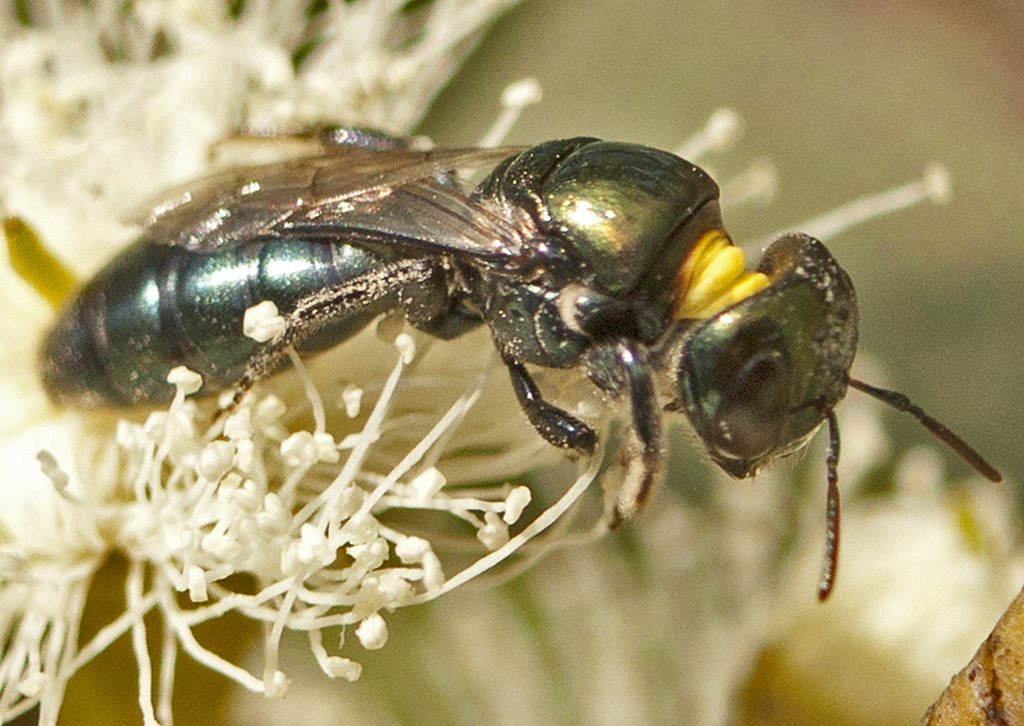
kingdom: Animalia
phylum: Arthropoda
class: Insecta
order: Hymenoptera
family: Colletidae
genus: Euryglossa
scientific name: Euryglossa laevigatum
